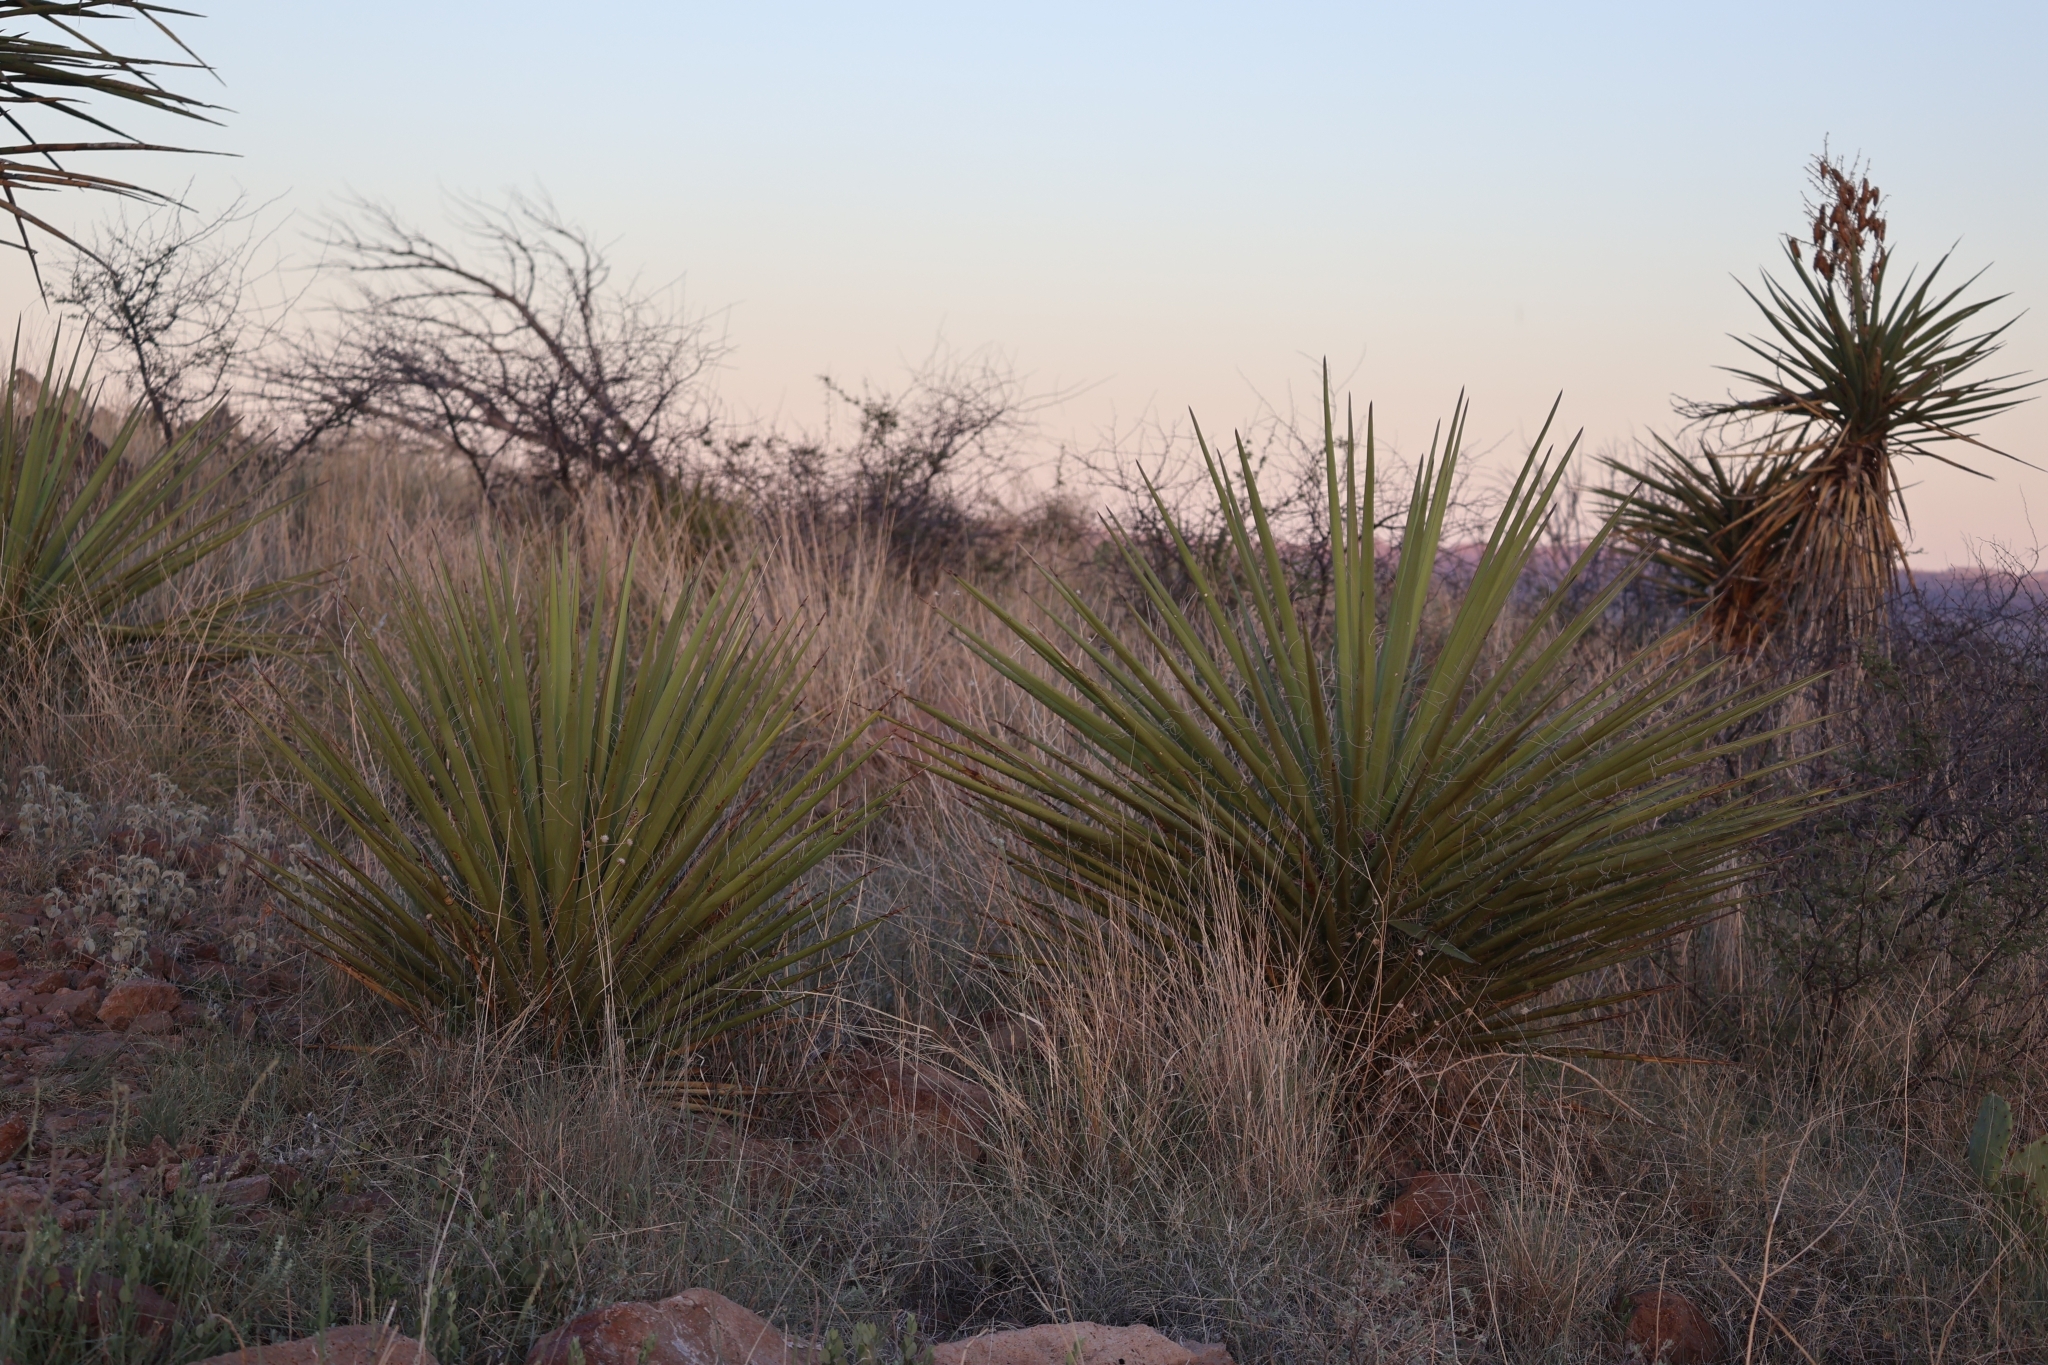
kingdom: Plantae
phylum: Tracheophyta
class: Liliopsida
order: Asparagales
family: Asparagaceae
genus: Yucca
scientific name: Yucca treculiana
